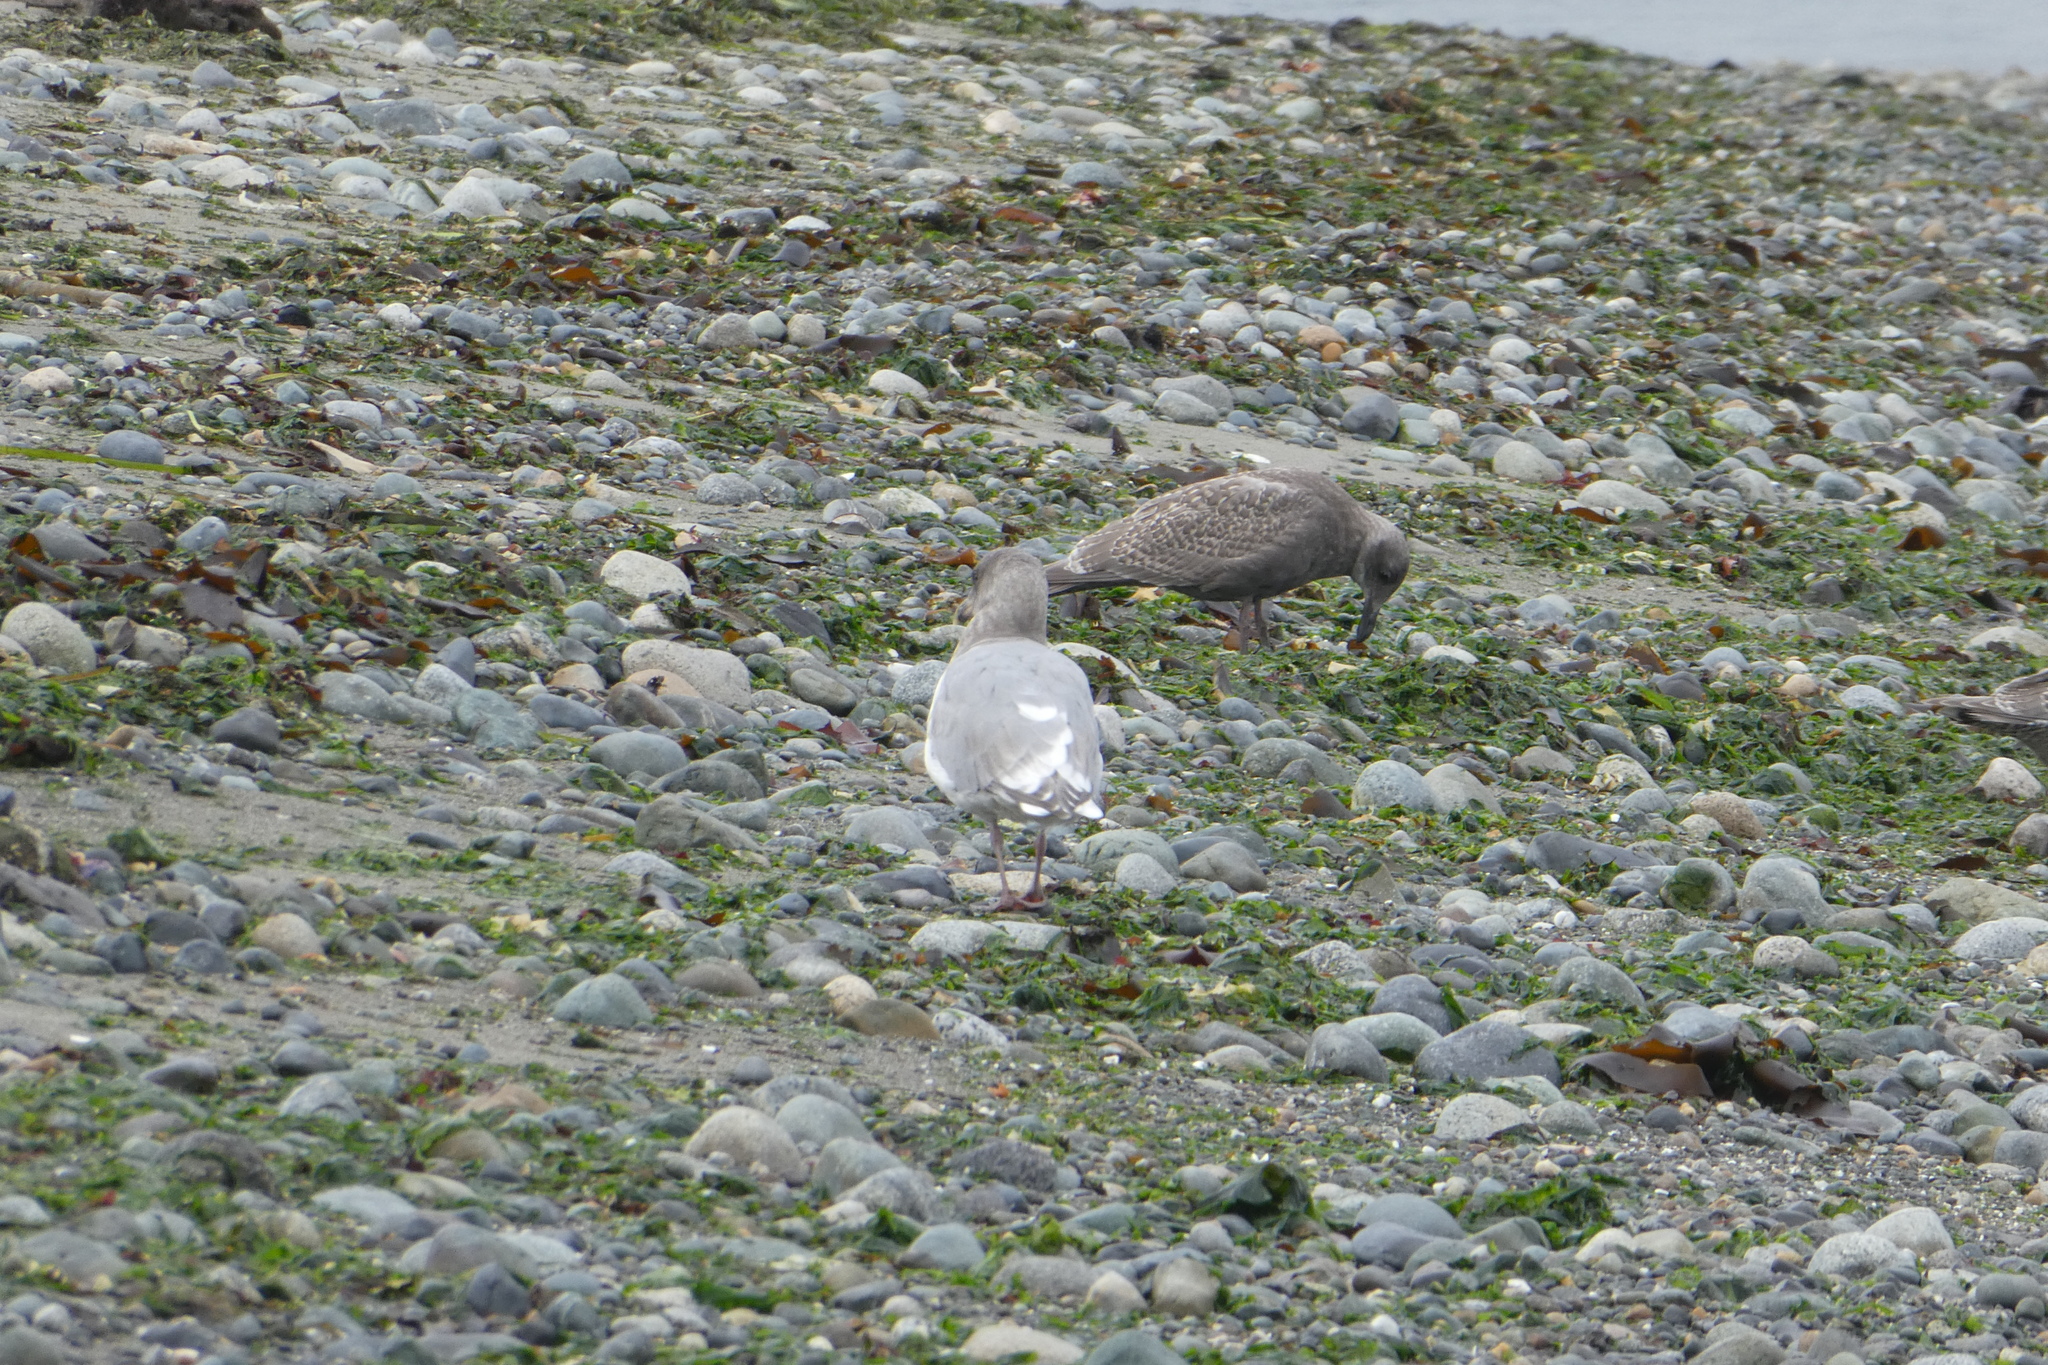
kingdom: Animalia
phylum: Chordata
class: Aves
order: Charadriiformes
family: Laridae
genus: Larus
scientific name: Larus
